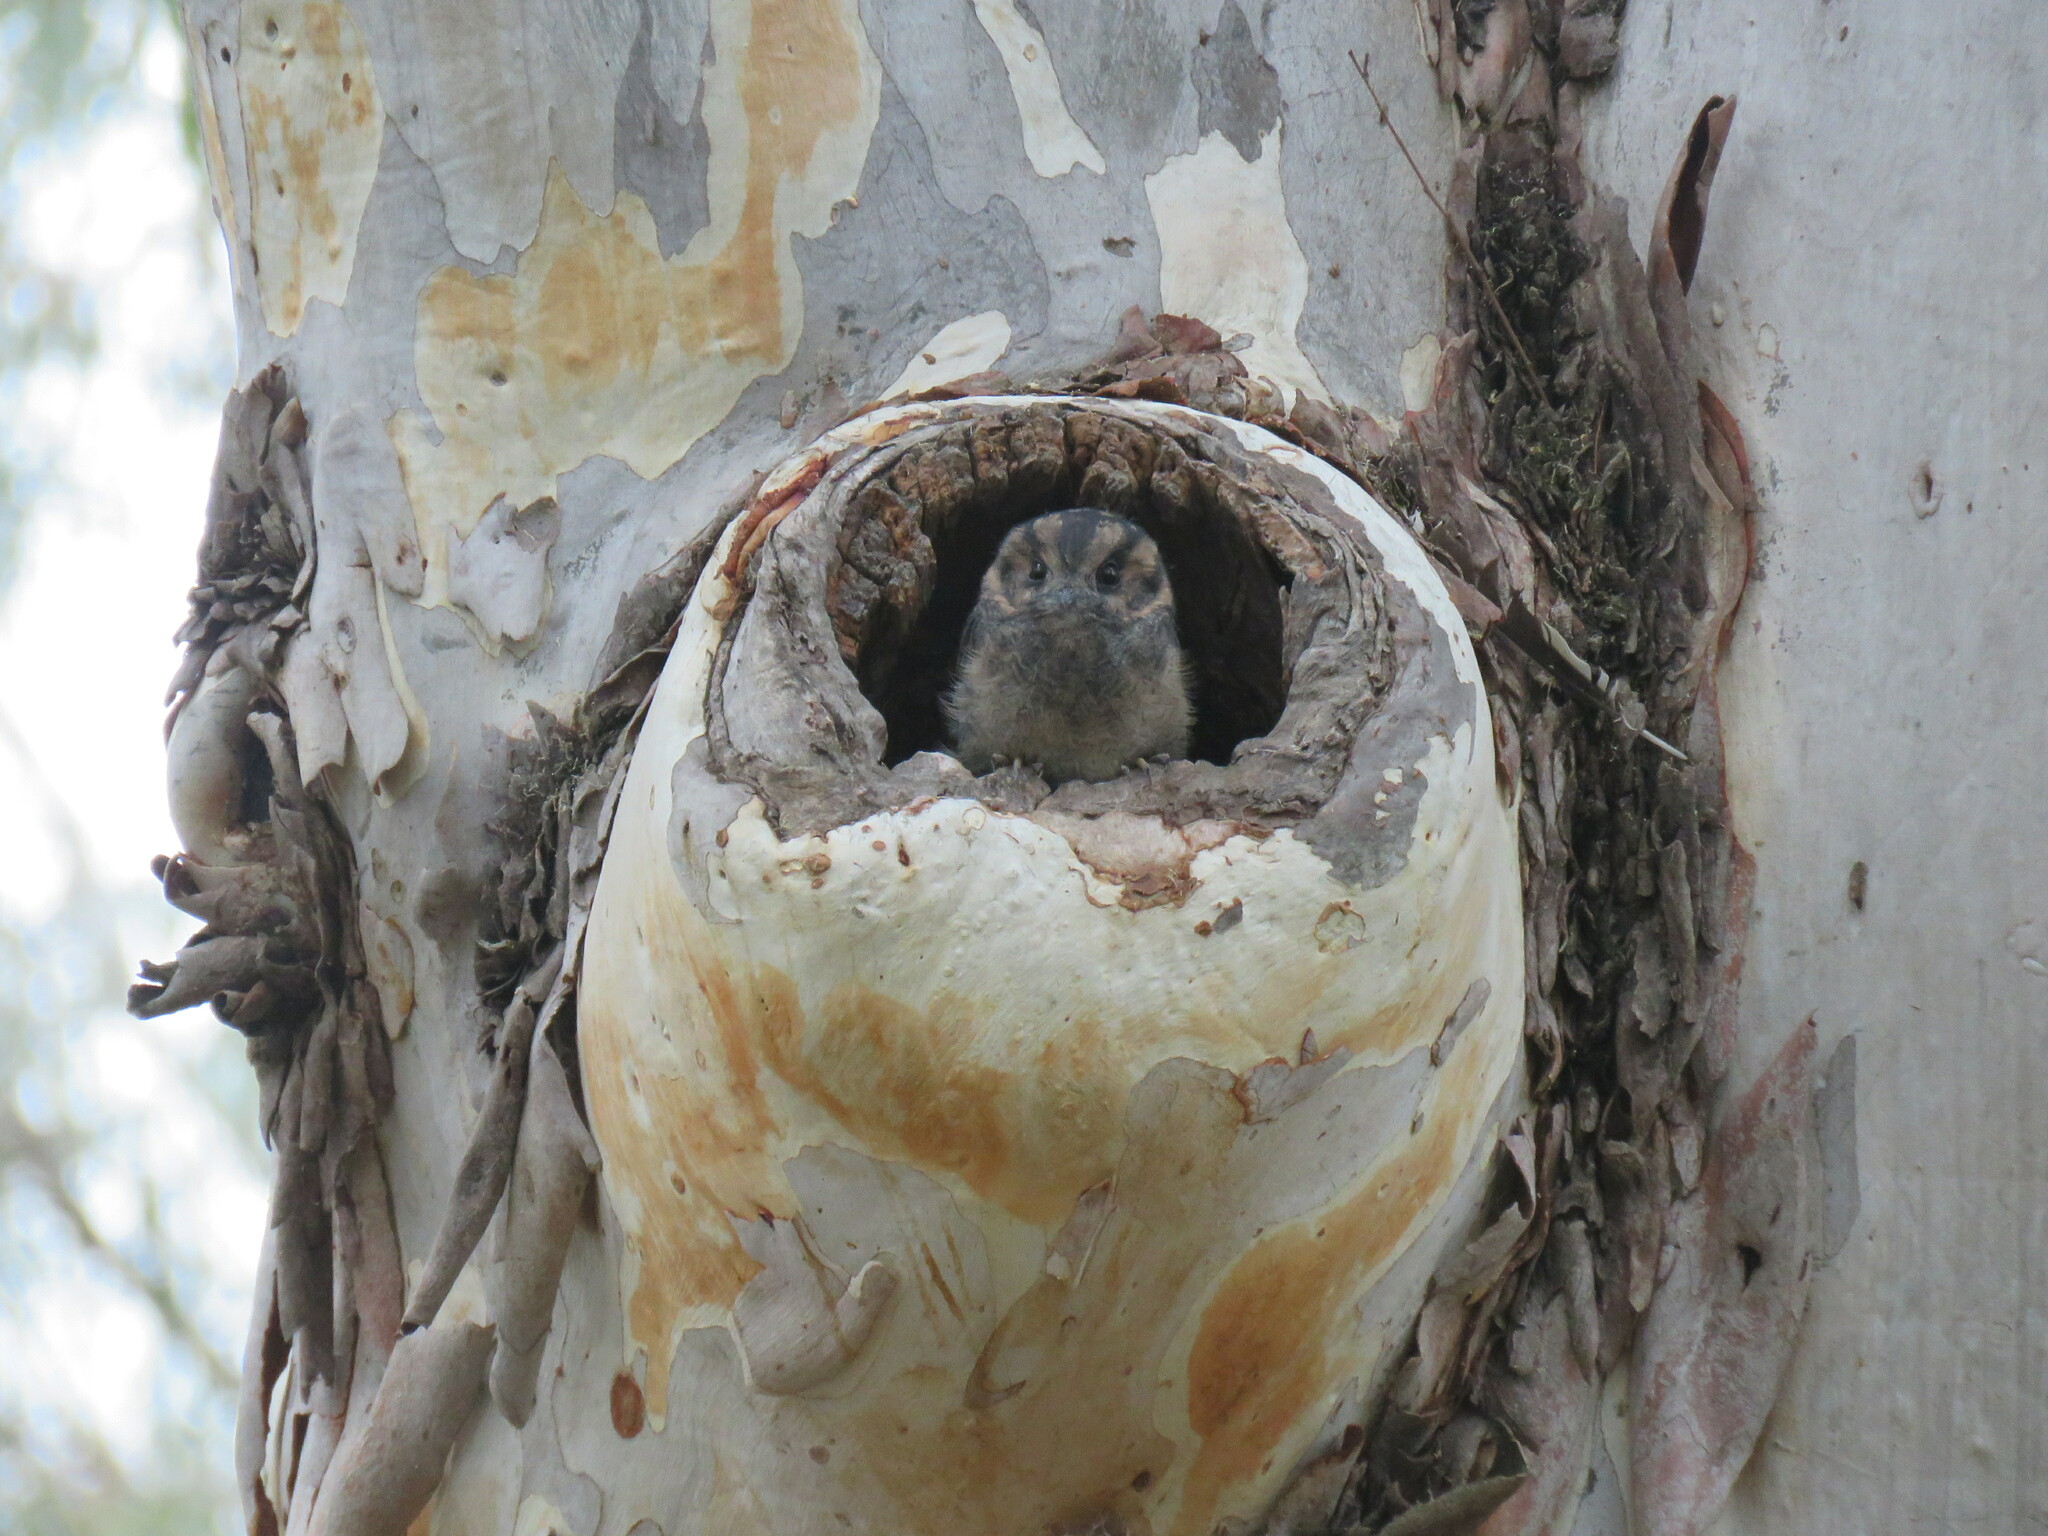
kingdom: Animalia
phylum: Chordata
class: Aves
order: Apodiformes
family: Aegothelidae
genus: Aegotheles
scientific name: Aegotheles cristatus
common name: Australian owlet-nightjar
